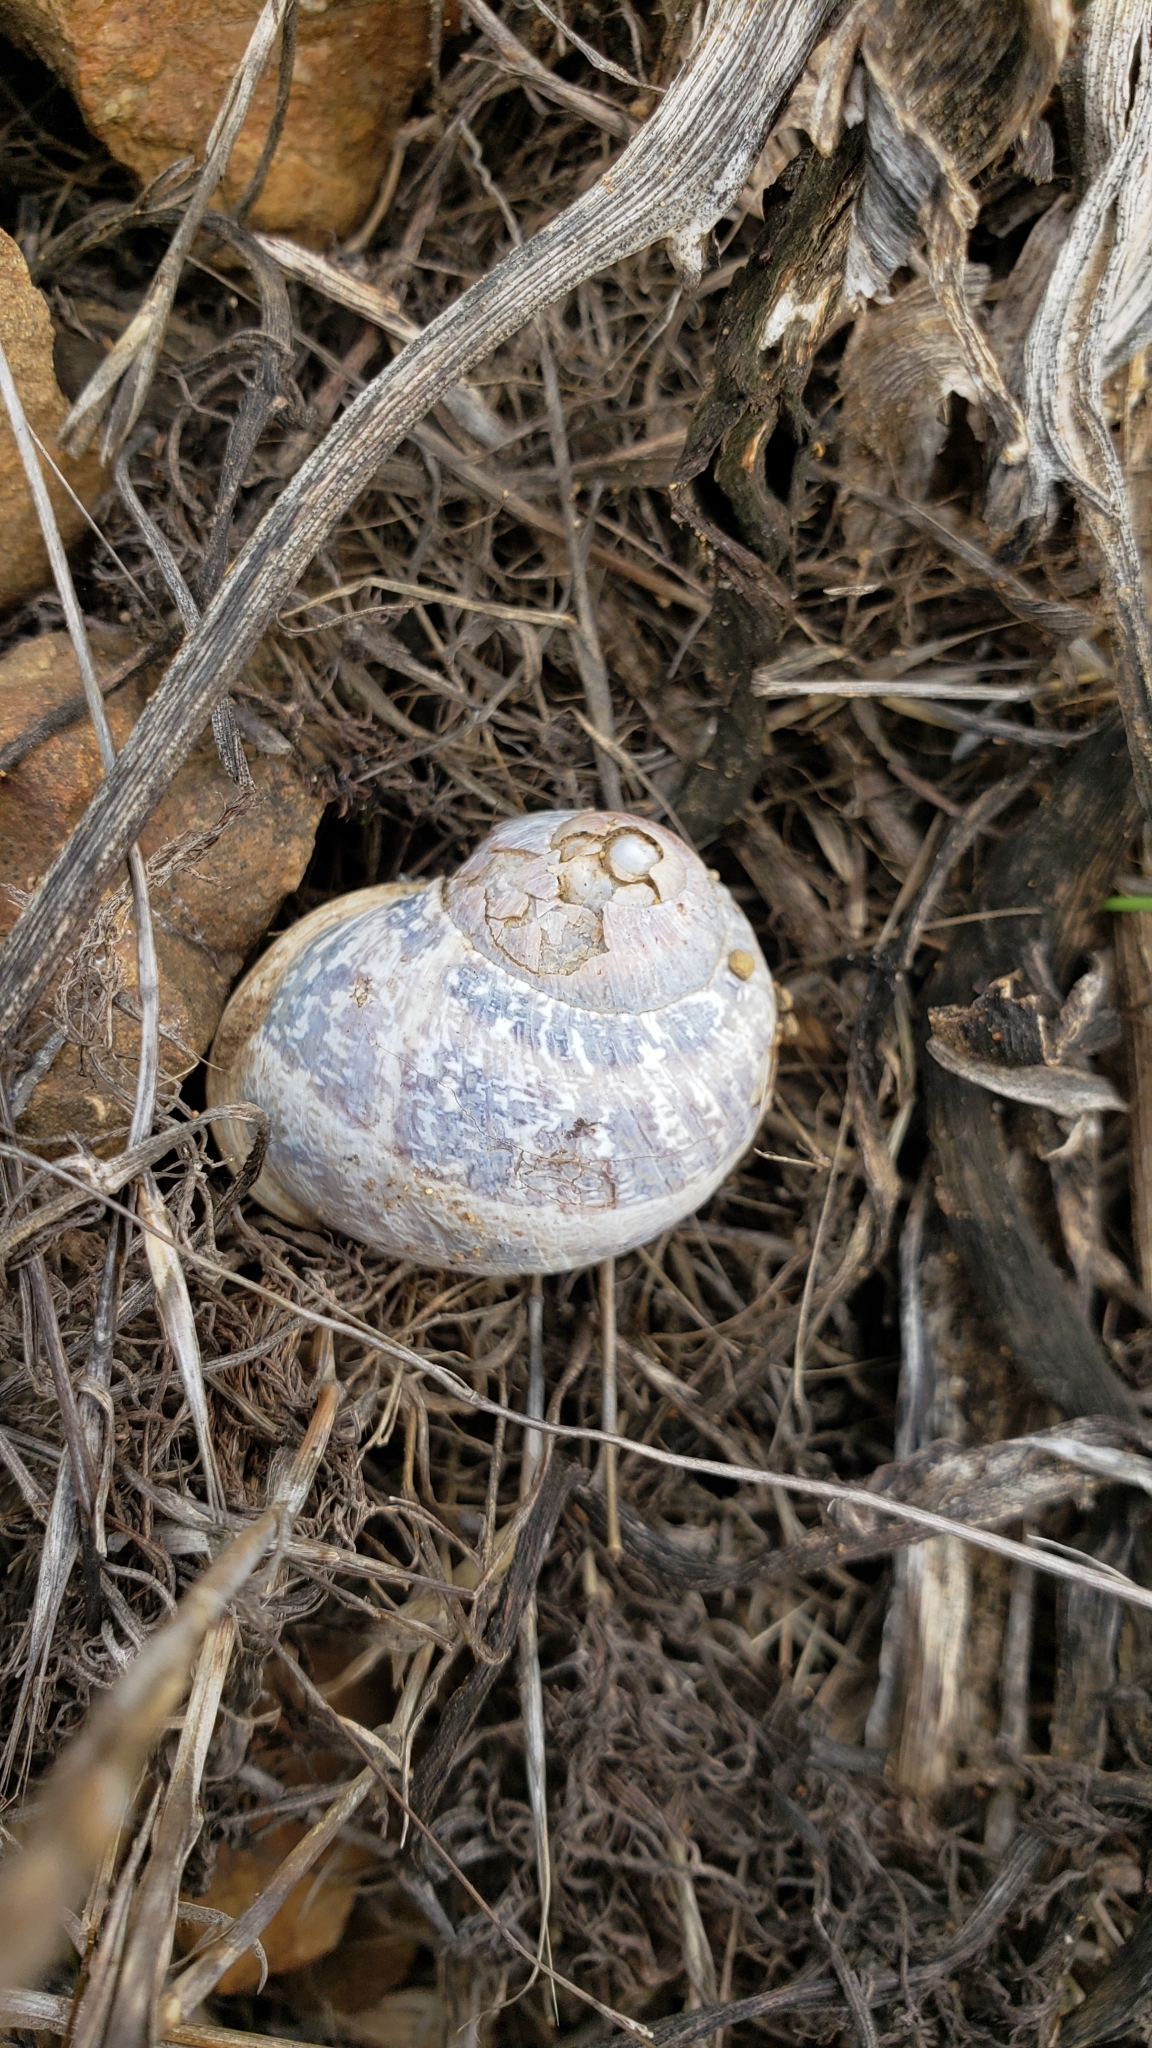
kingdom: Animalia
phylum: Mollusca
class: Gastropoda
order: Stylommatophora
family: Helicidae
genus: Cornu
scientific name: Cornu aspersum
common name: Brown garden snail
